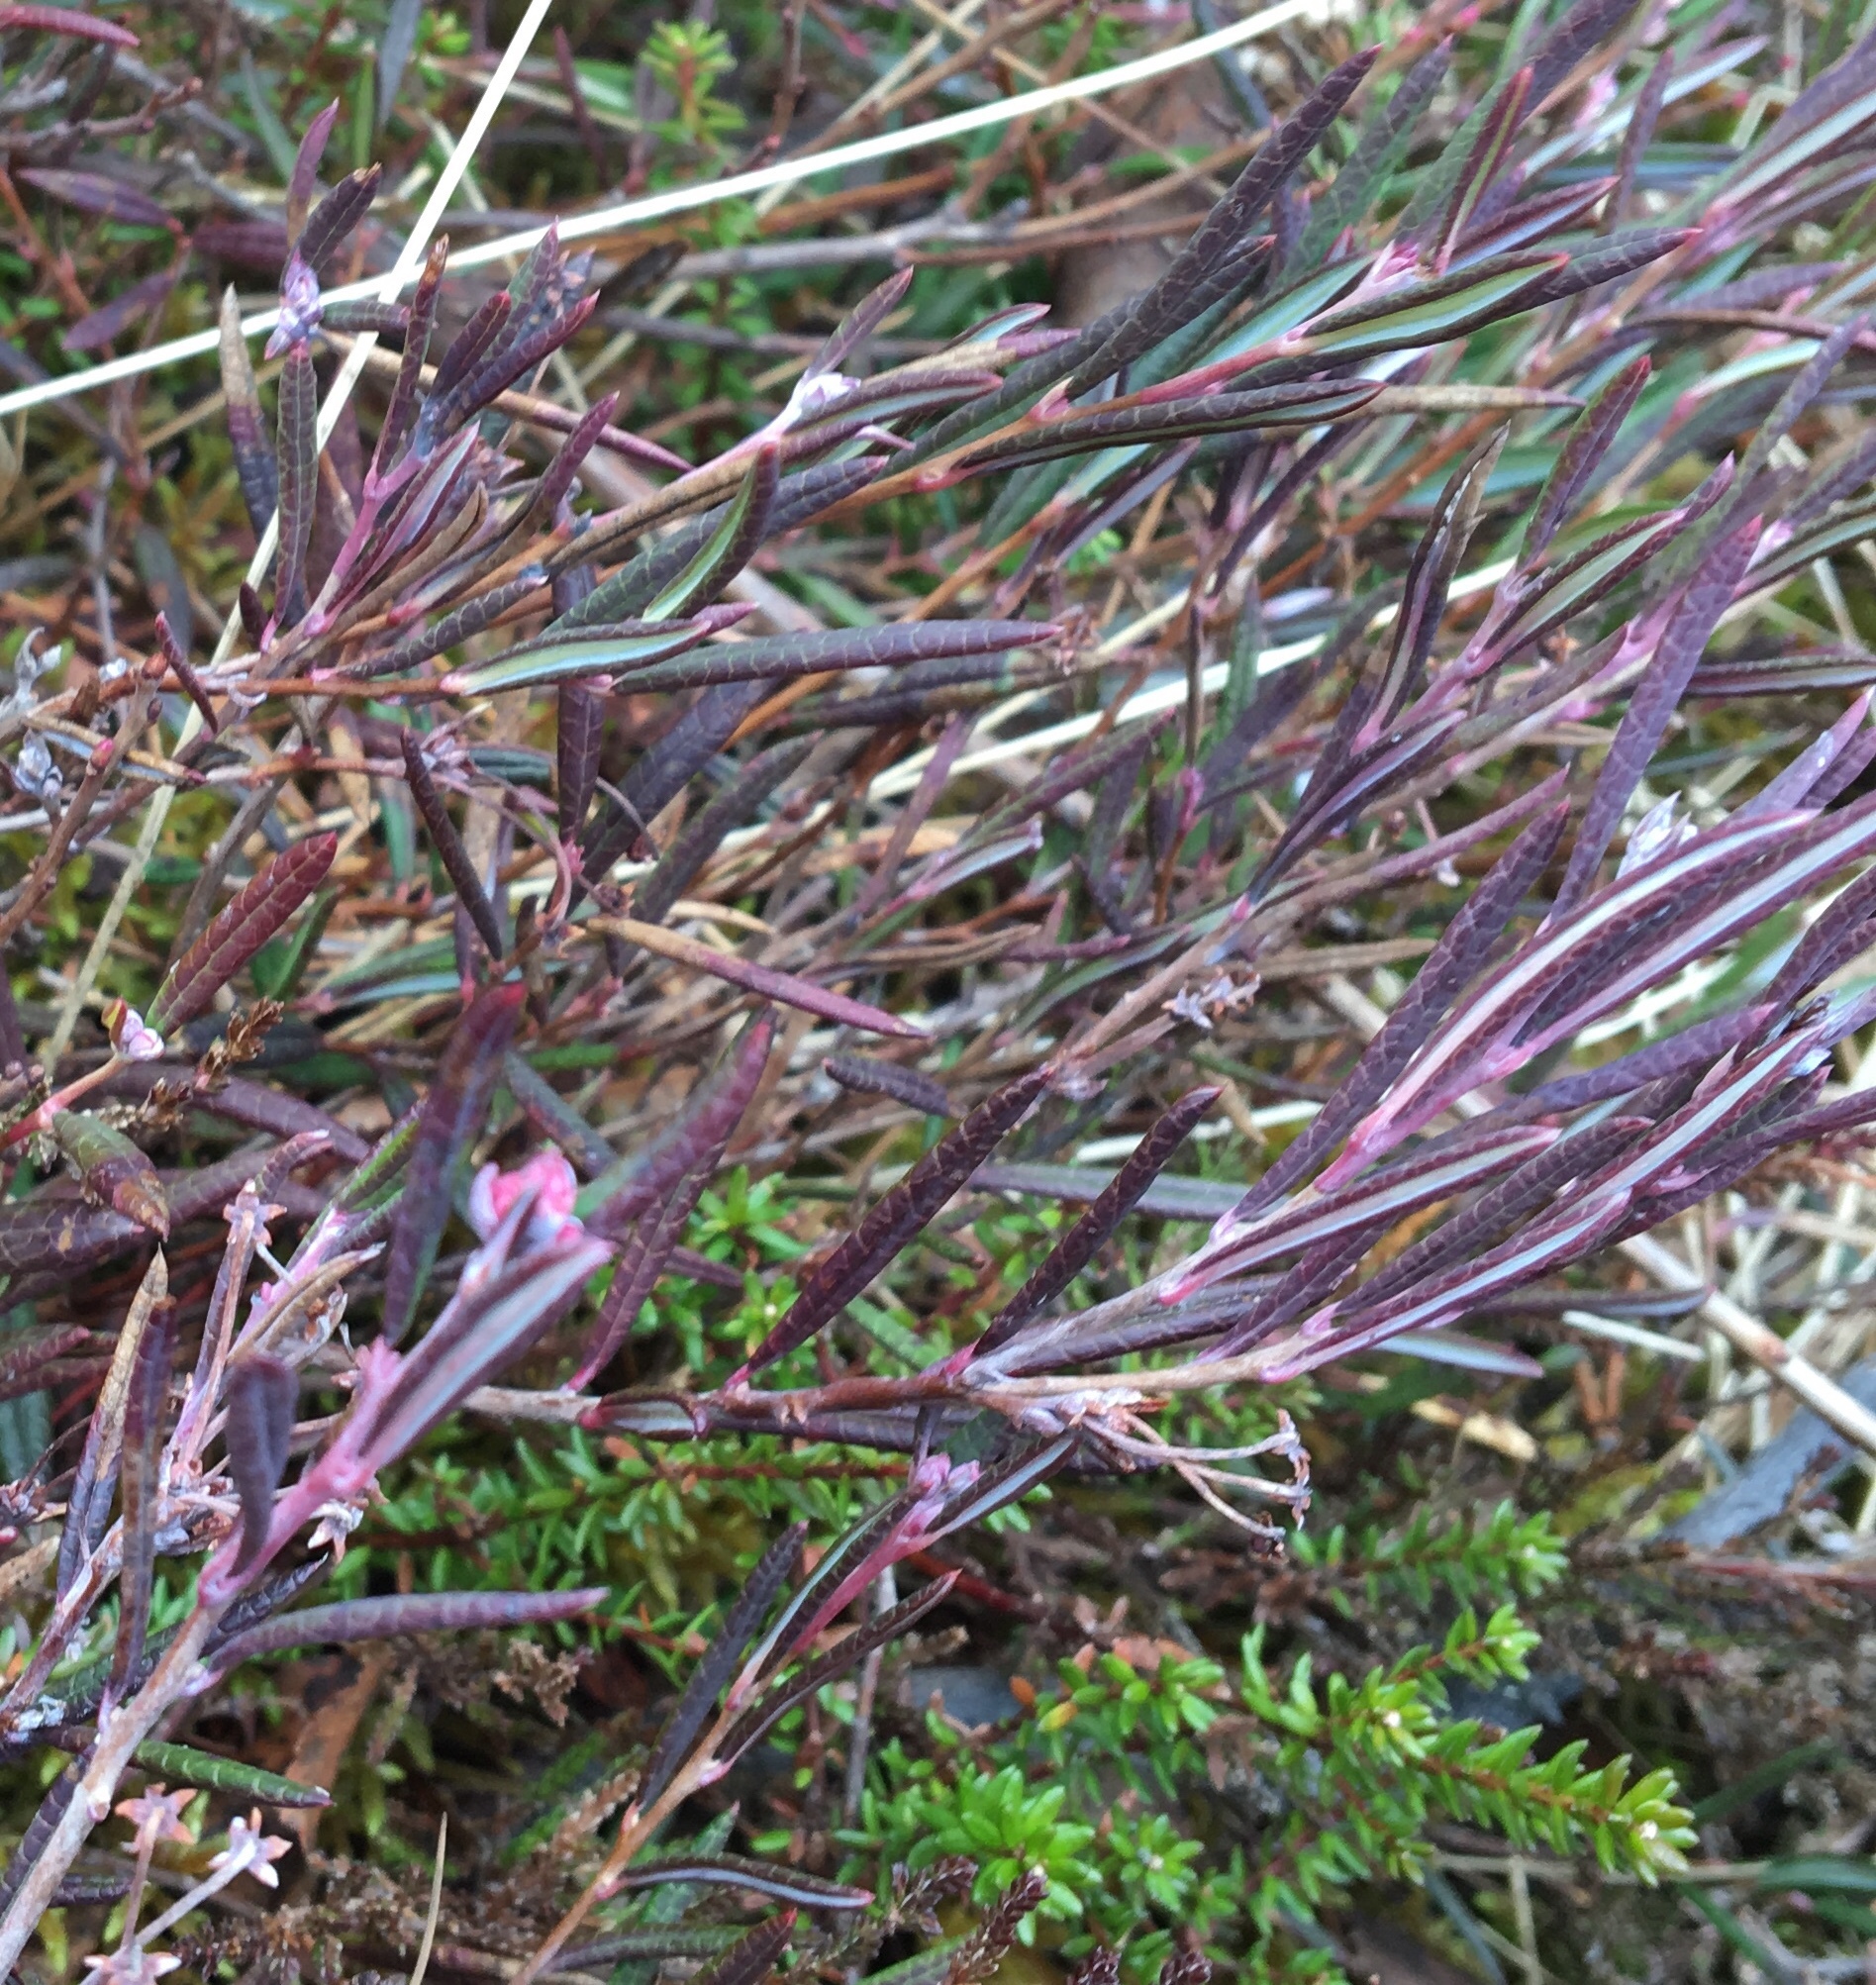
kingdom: Plantae
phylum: Tracheophyta
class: Magnoliopsida
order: Ericales
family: Ericaceae
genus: Andromeda
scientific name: Andromeda polifolia
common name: Bog-rosemary
